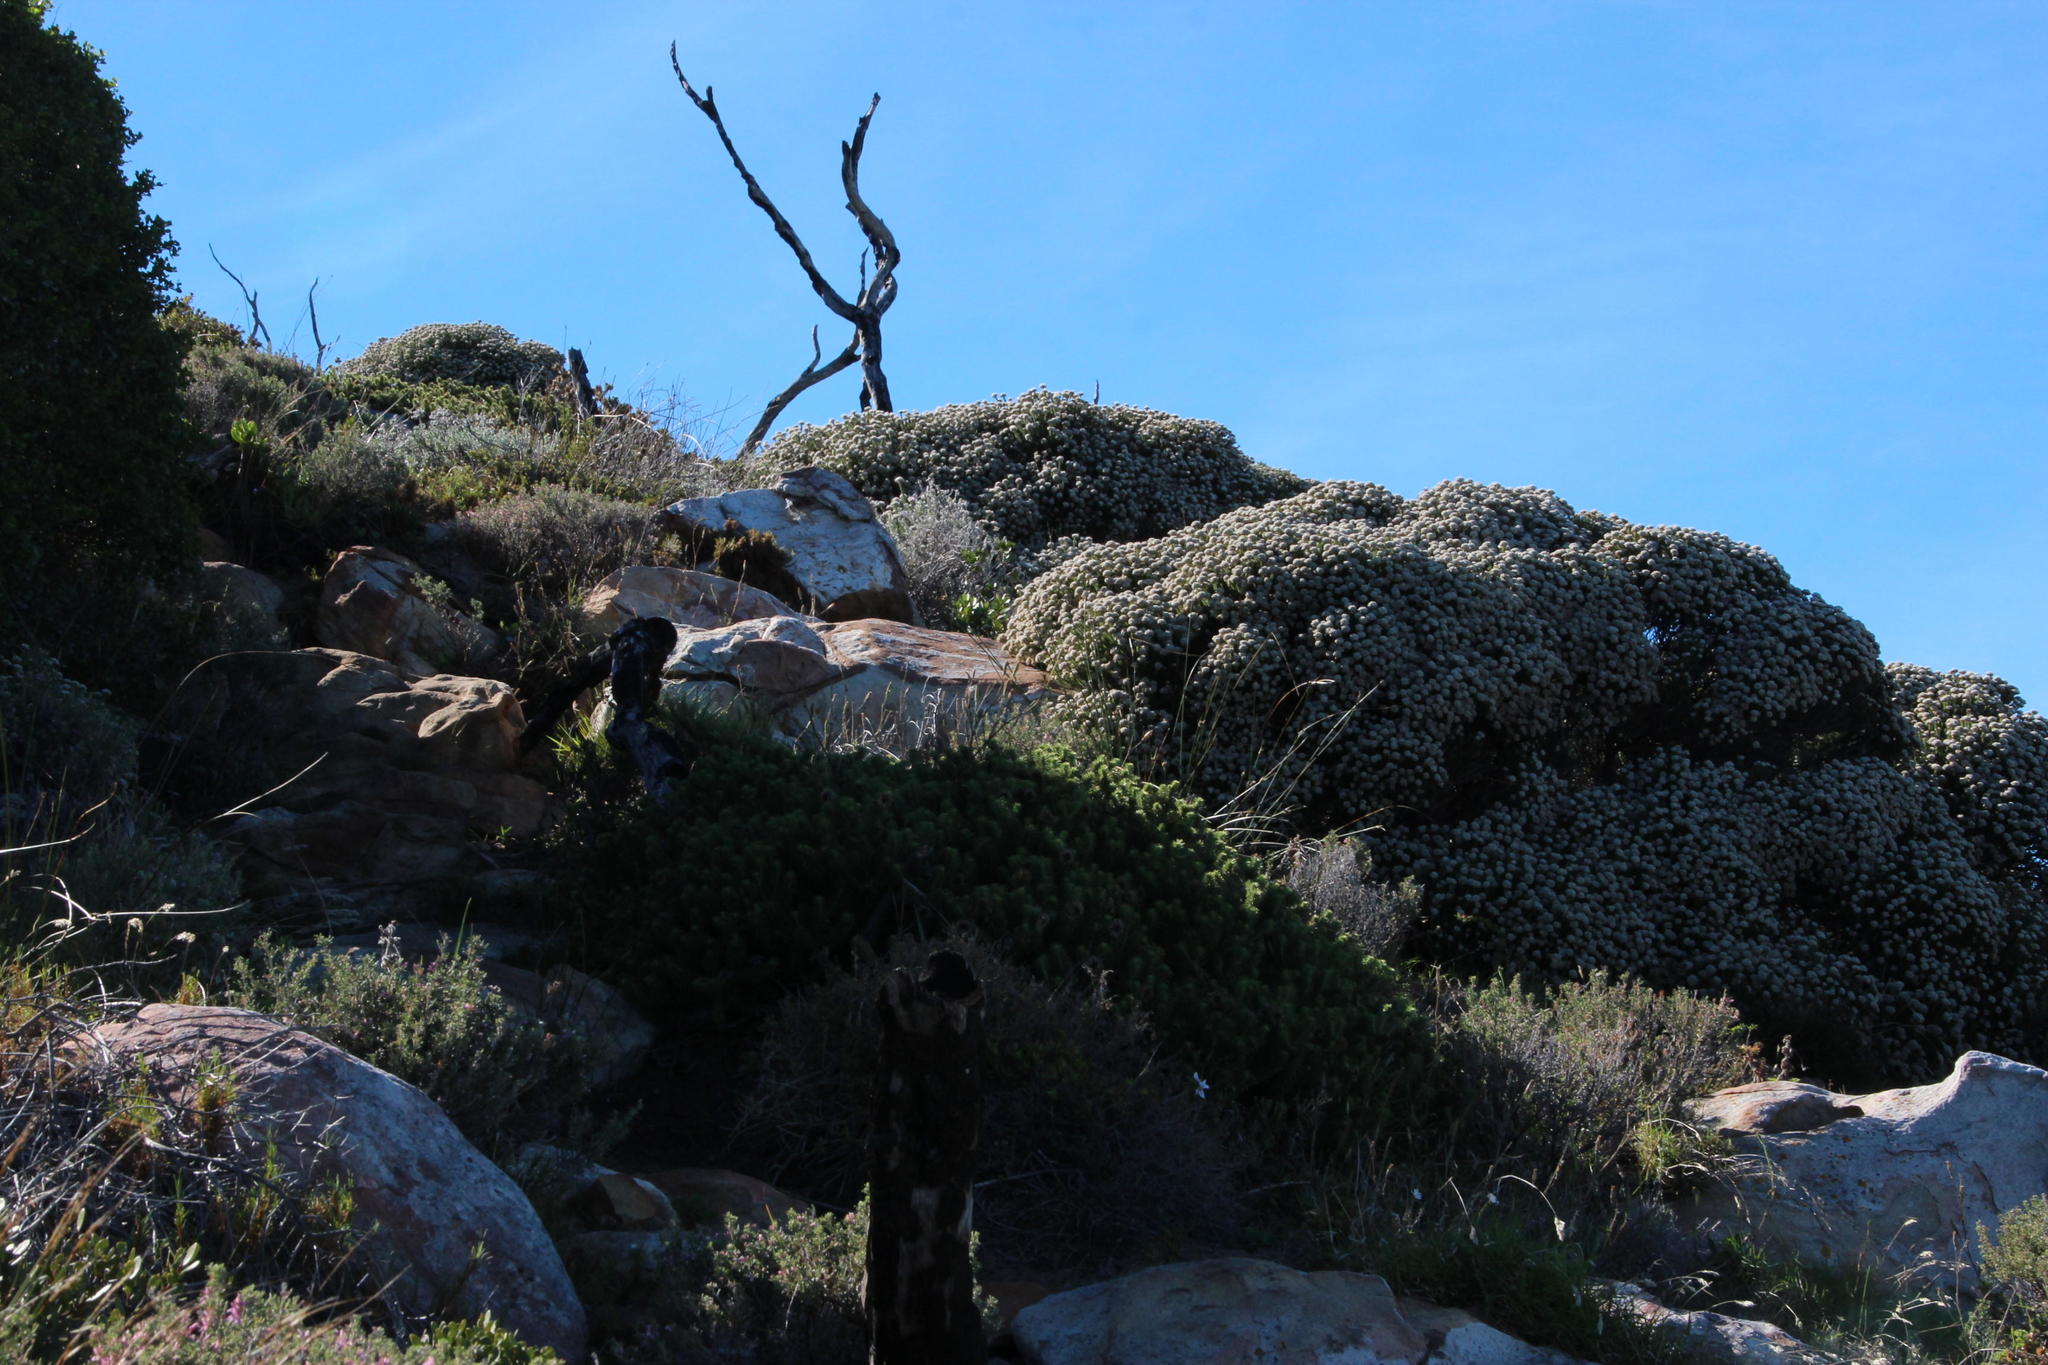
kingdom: Plantae
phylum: Tracheophyta
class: Magnoliopsida
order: Asterales
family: Asteraceae
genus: Cullumia
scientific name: Cullumia squarrosa
